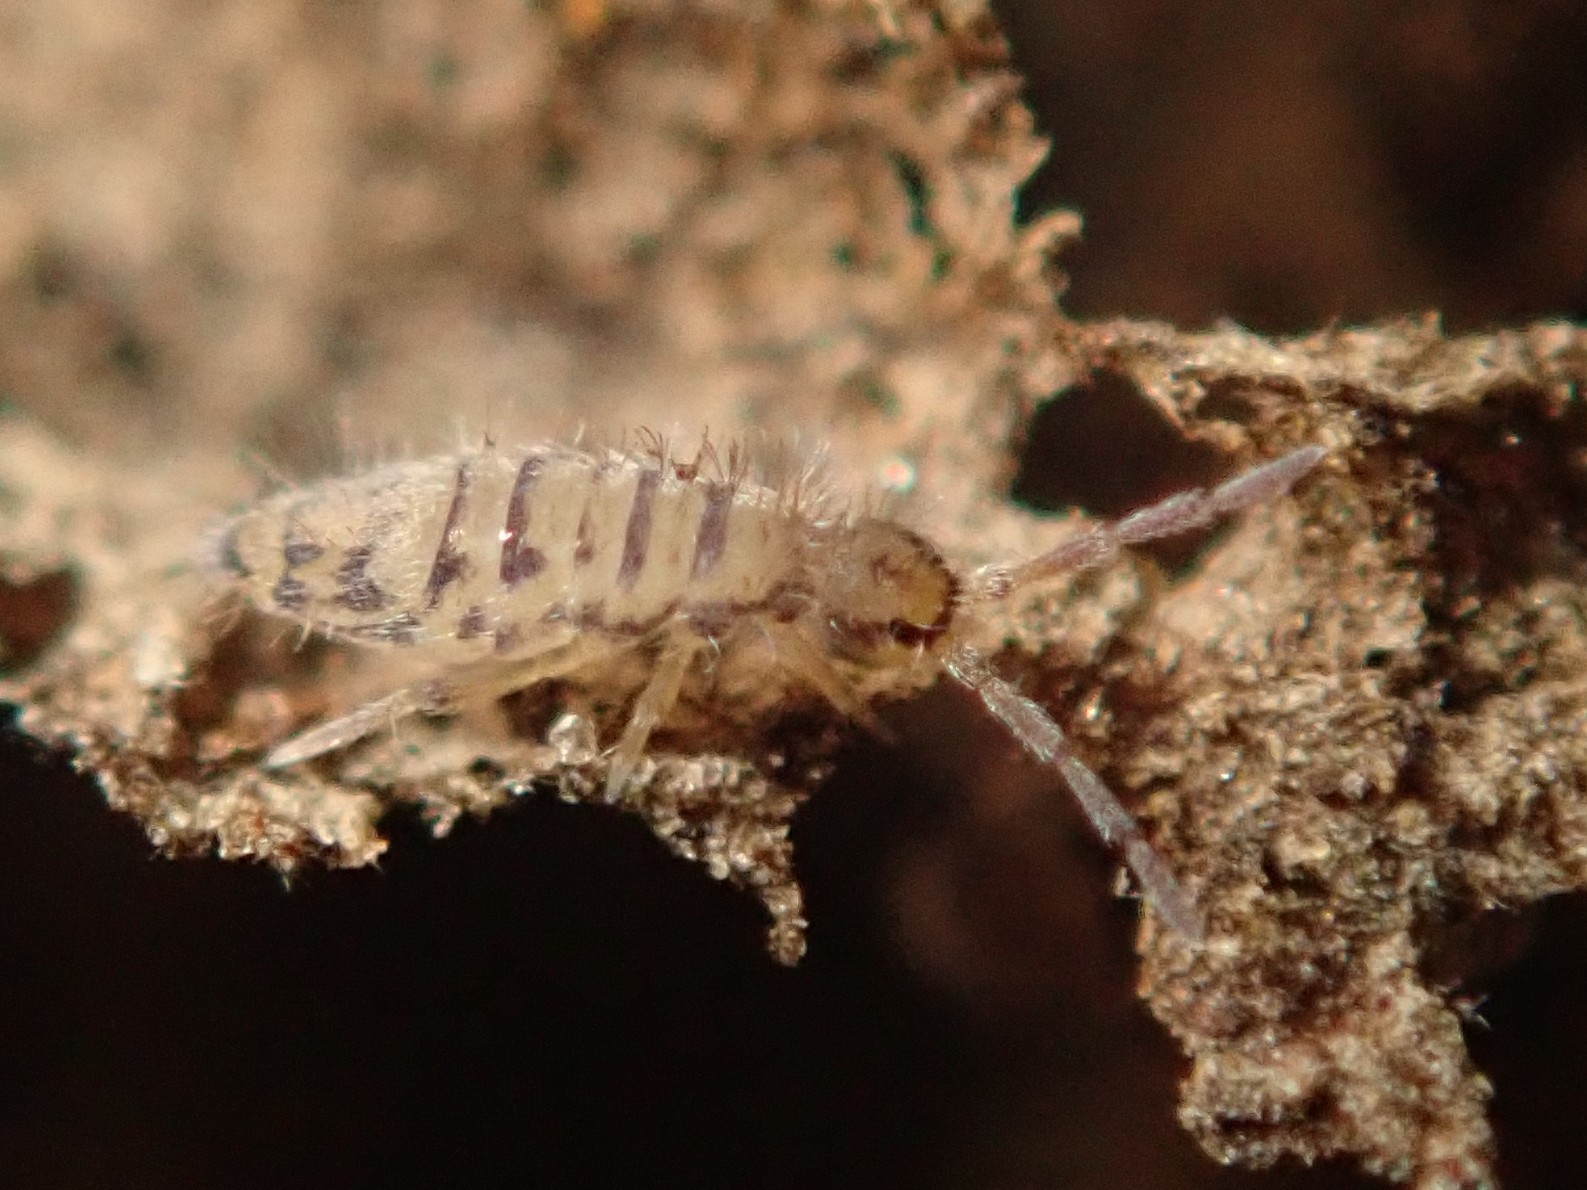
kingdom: Animalia
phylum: Arthropoda
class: Collembola
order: Entomobryomorpha
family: Entomobryidae
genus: Entomobrya
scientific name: Entomobrya multifasciata
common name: Springtail
